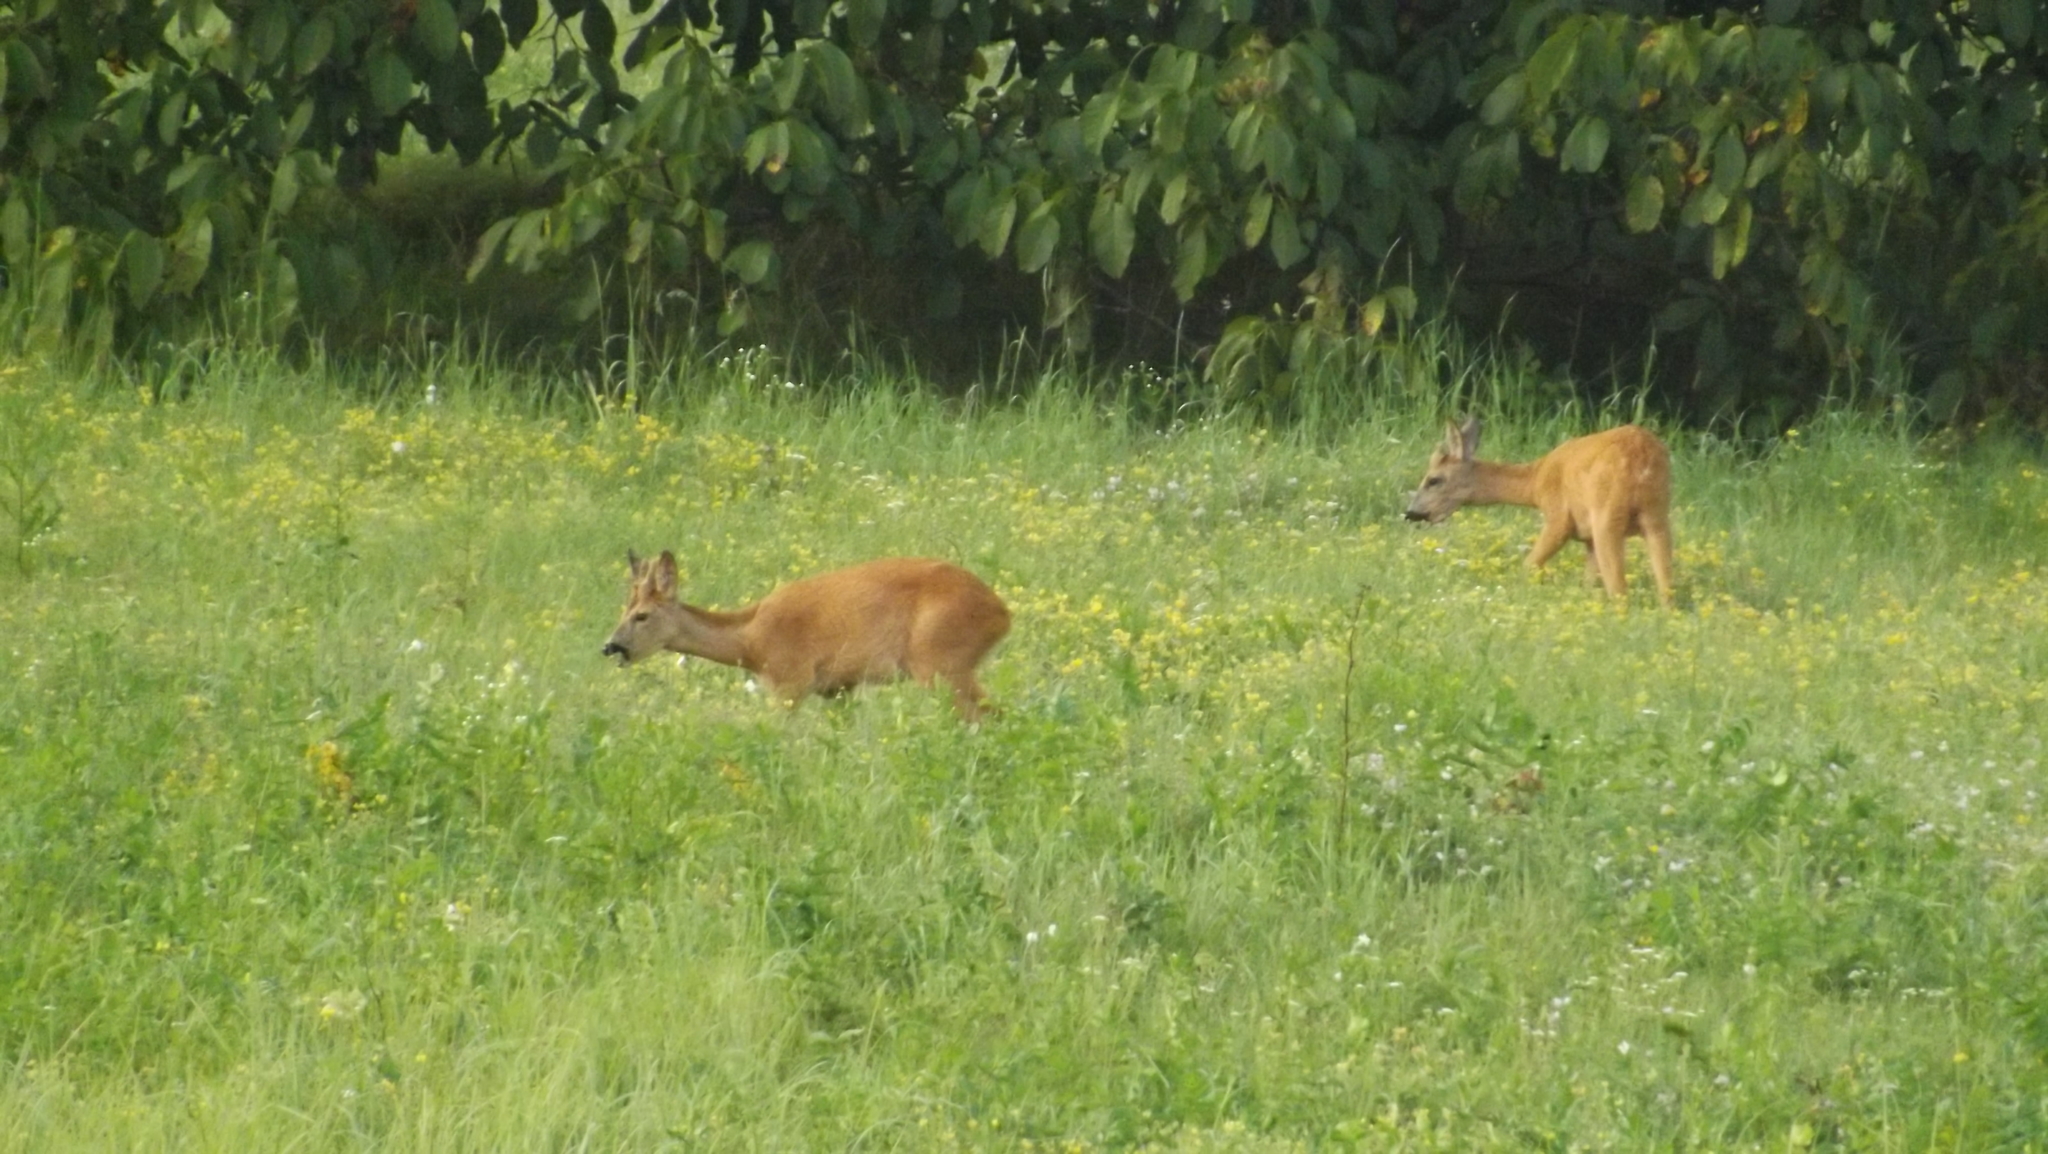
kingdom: Animalia
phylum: Chordata
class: Mammalia
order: Artiodactyla
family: Cervidae
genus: Capreolus
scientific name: Capreolus capreolus
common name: Western roe deer
